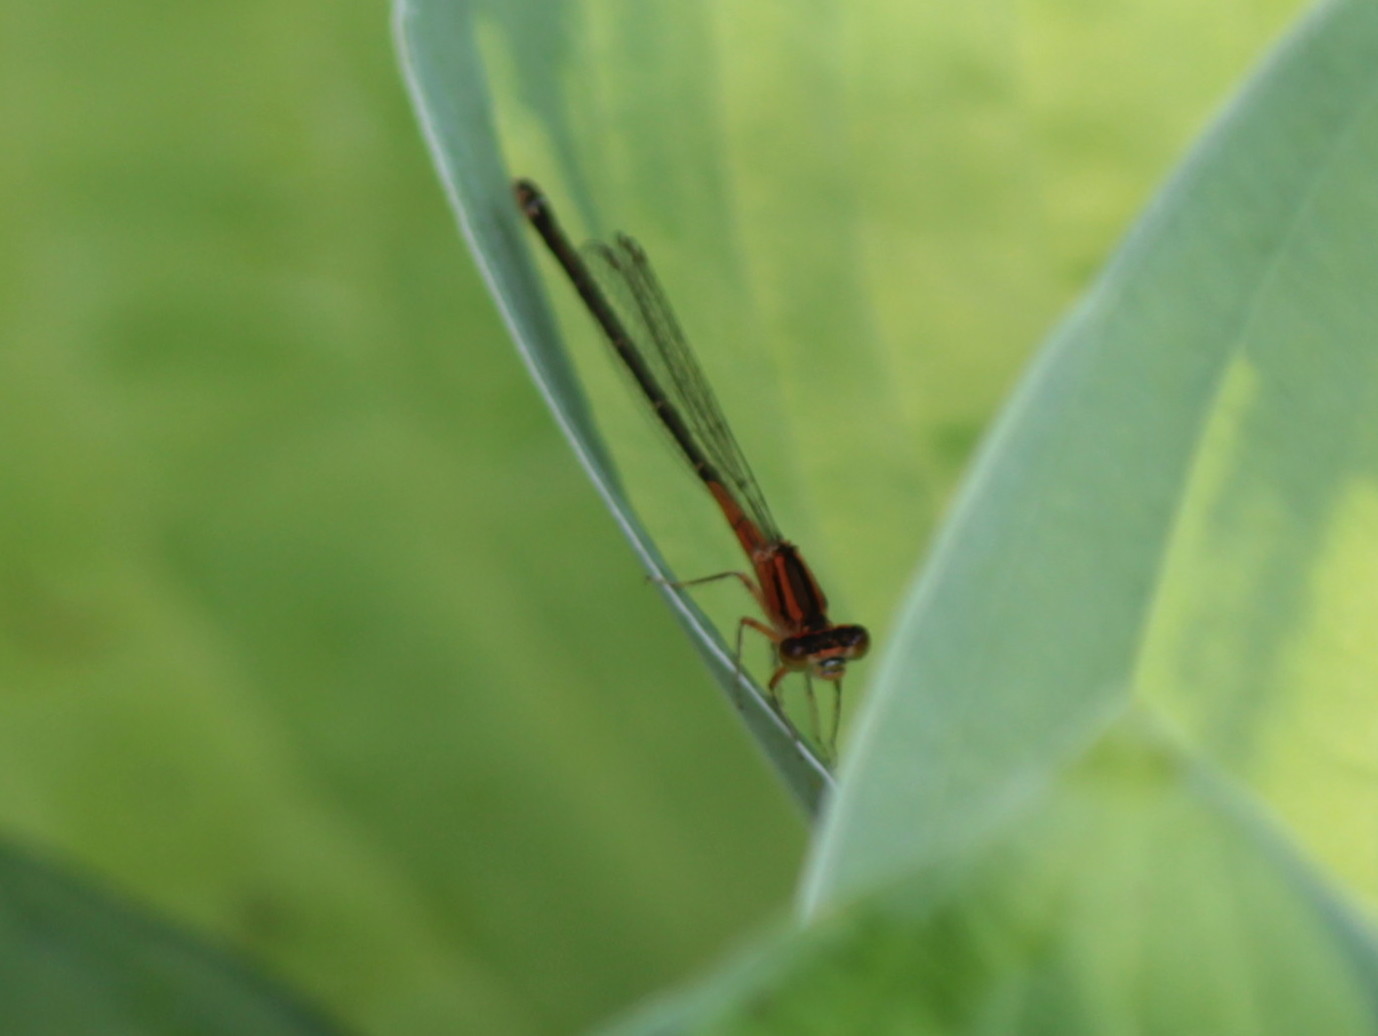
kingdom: Animalia
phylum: Arthropoda
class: Insecta
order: Odonata
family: Coenagrionidae
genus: Ischnura
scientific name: Ischnura verticalis
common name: Eastern forktail
